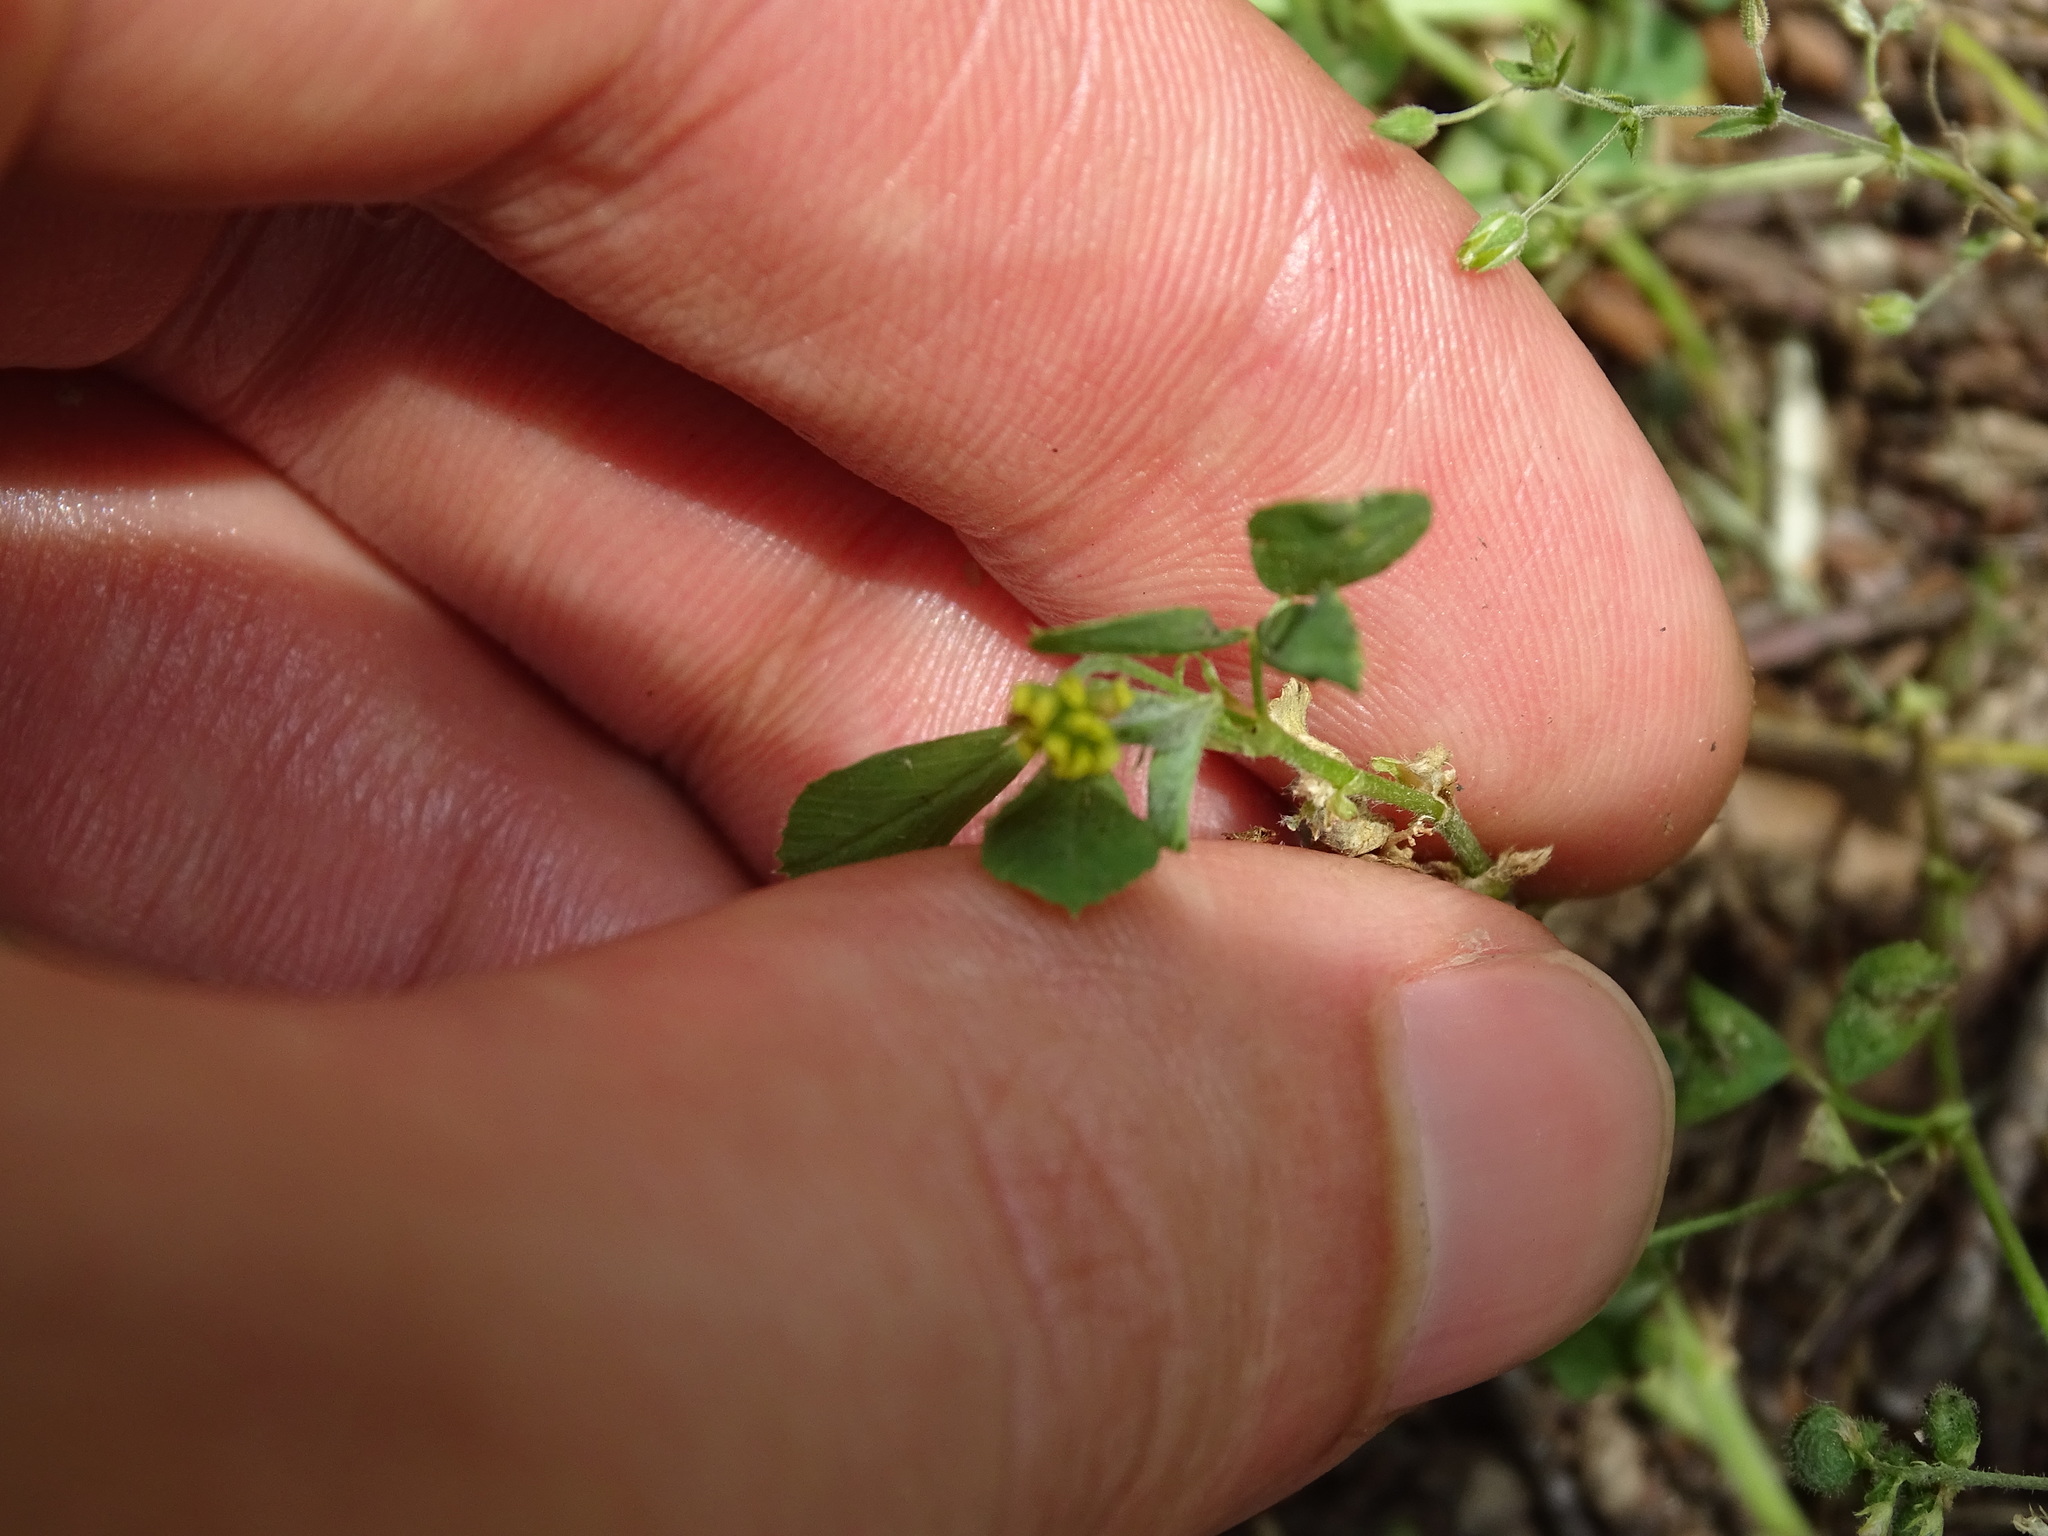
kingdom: Plantae
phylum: Tracheophyta
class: Magnoliopsida
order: Fabales
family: Fabaceae
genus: Medicago
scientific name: Medicago lupulina
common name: Black medick
